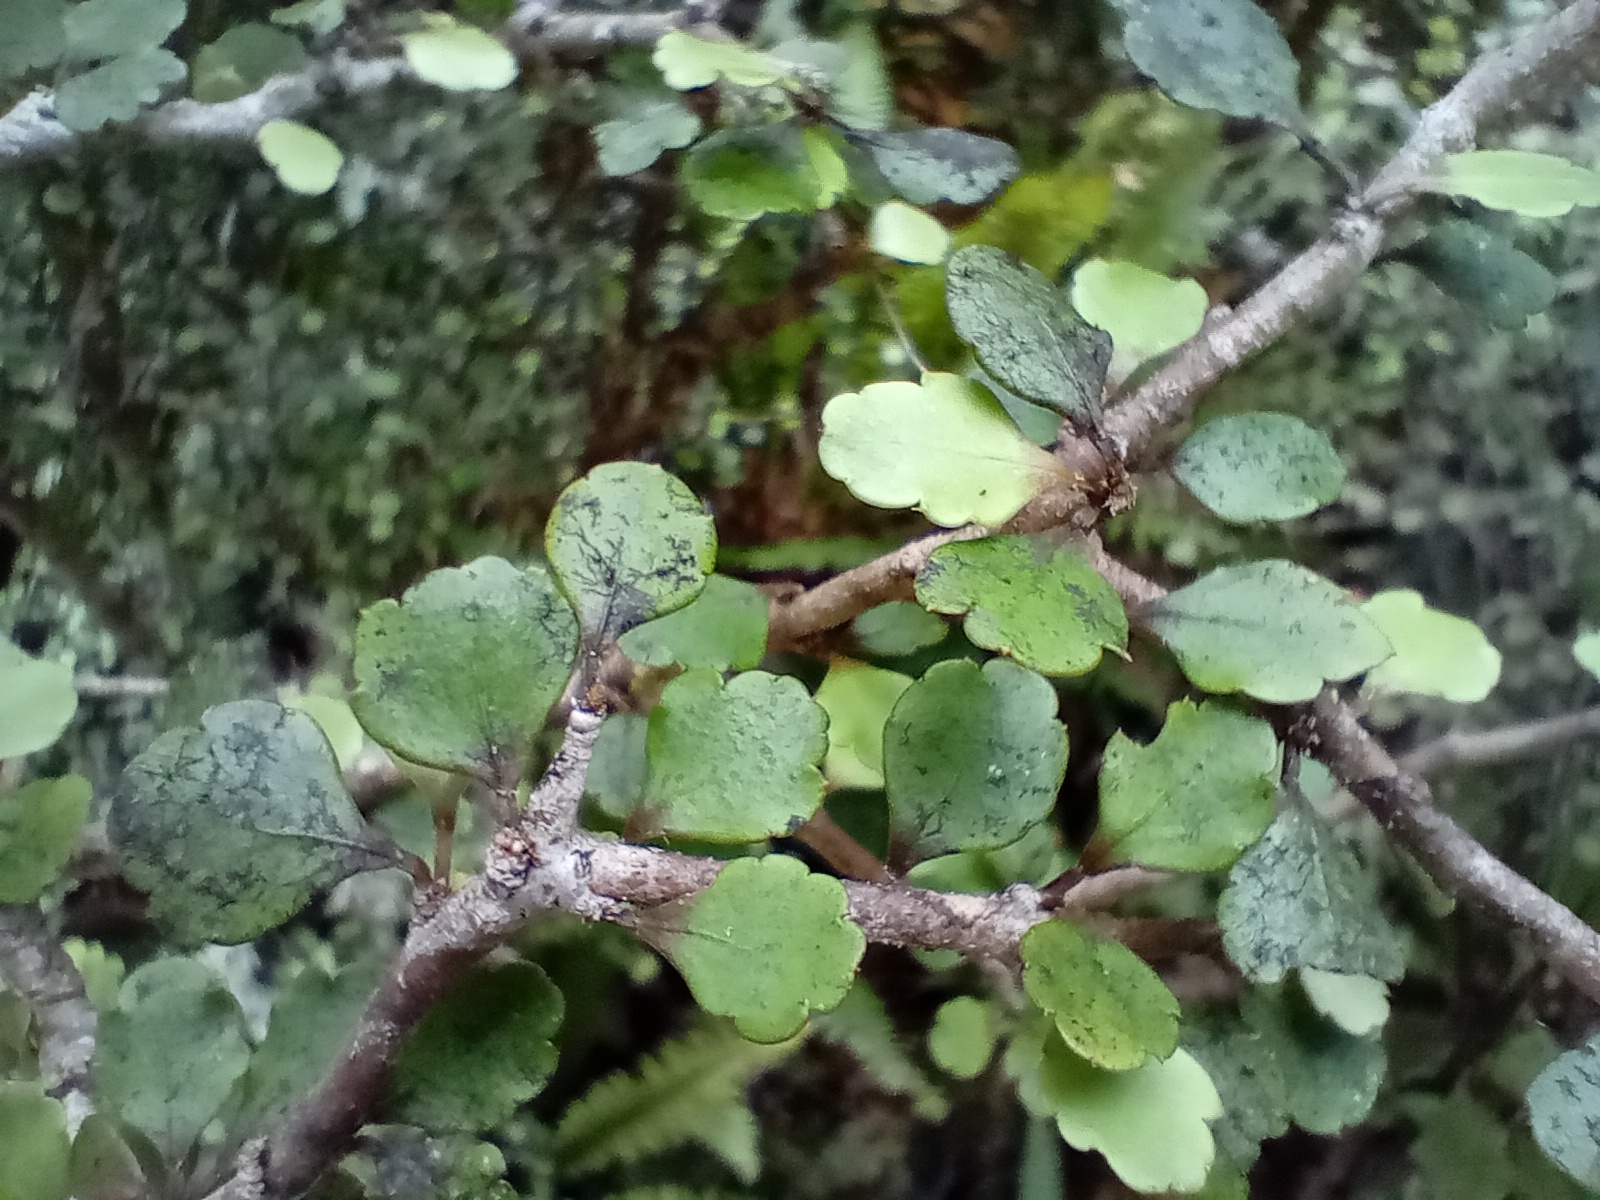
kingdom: Plantae
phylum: Tracheophyta
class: Magnoliopsida
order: Apiales
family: Araliaceae
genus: Raukaua
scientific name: Raukaua anomalus
